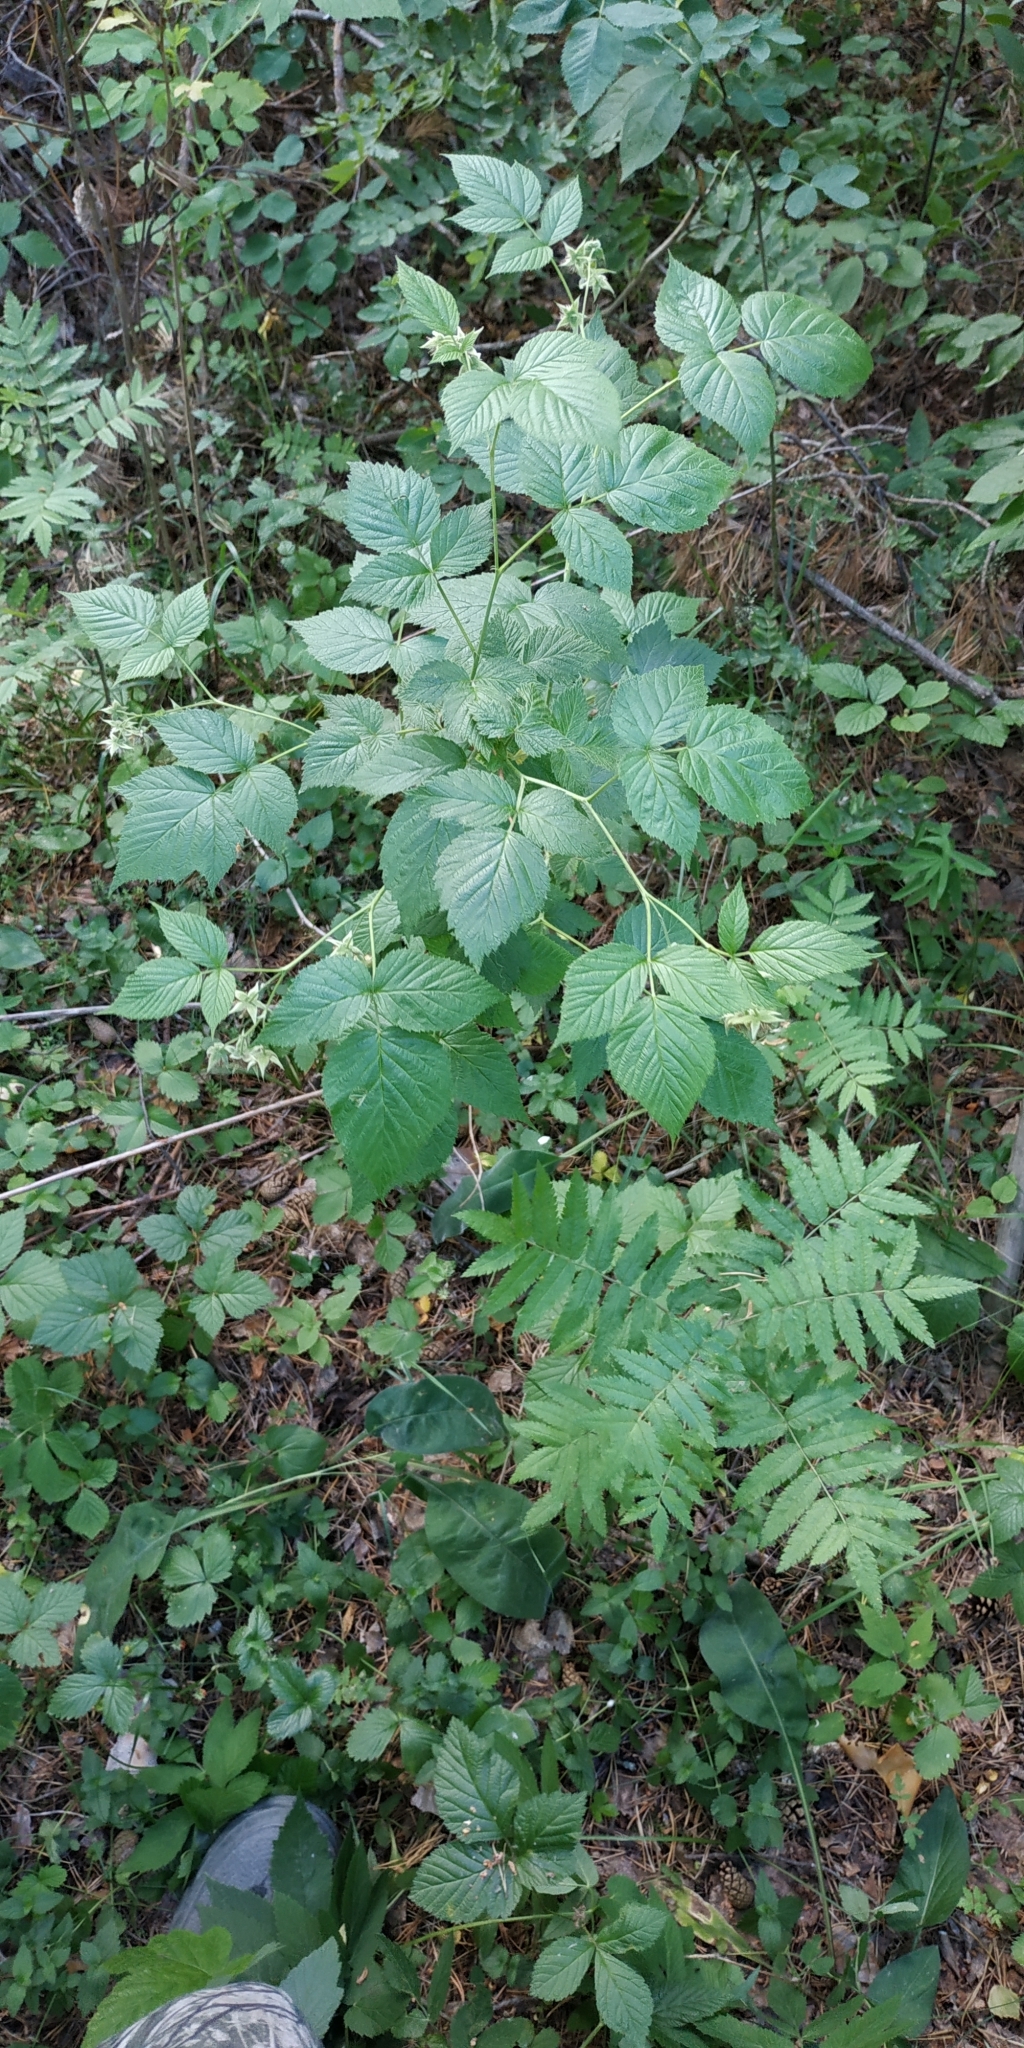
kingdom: Plantae
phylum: Tracheophyta
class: Magnoliopsida
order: Rosales
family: Rosaceae
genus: Rubus
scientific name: Rubus idaeus
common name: Raspberry
